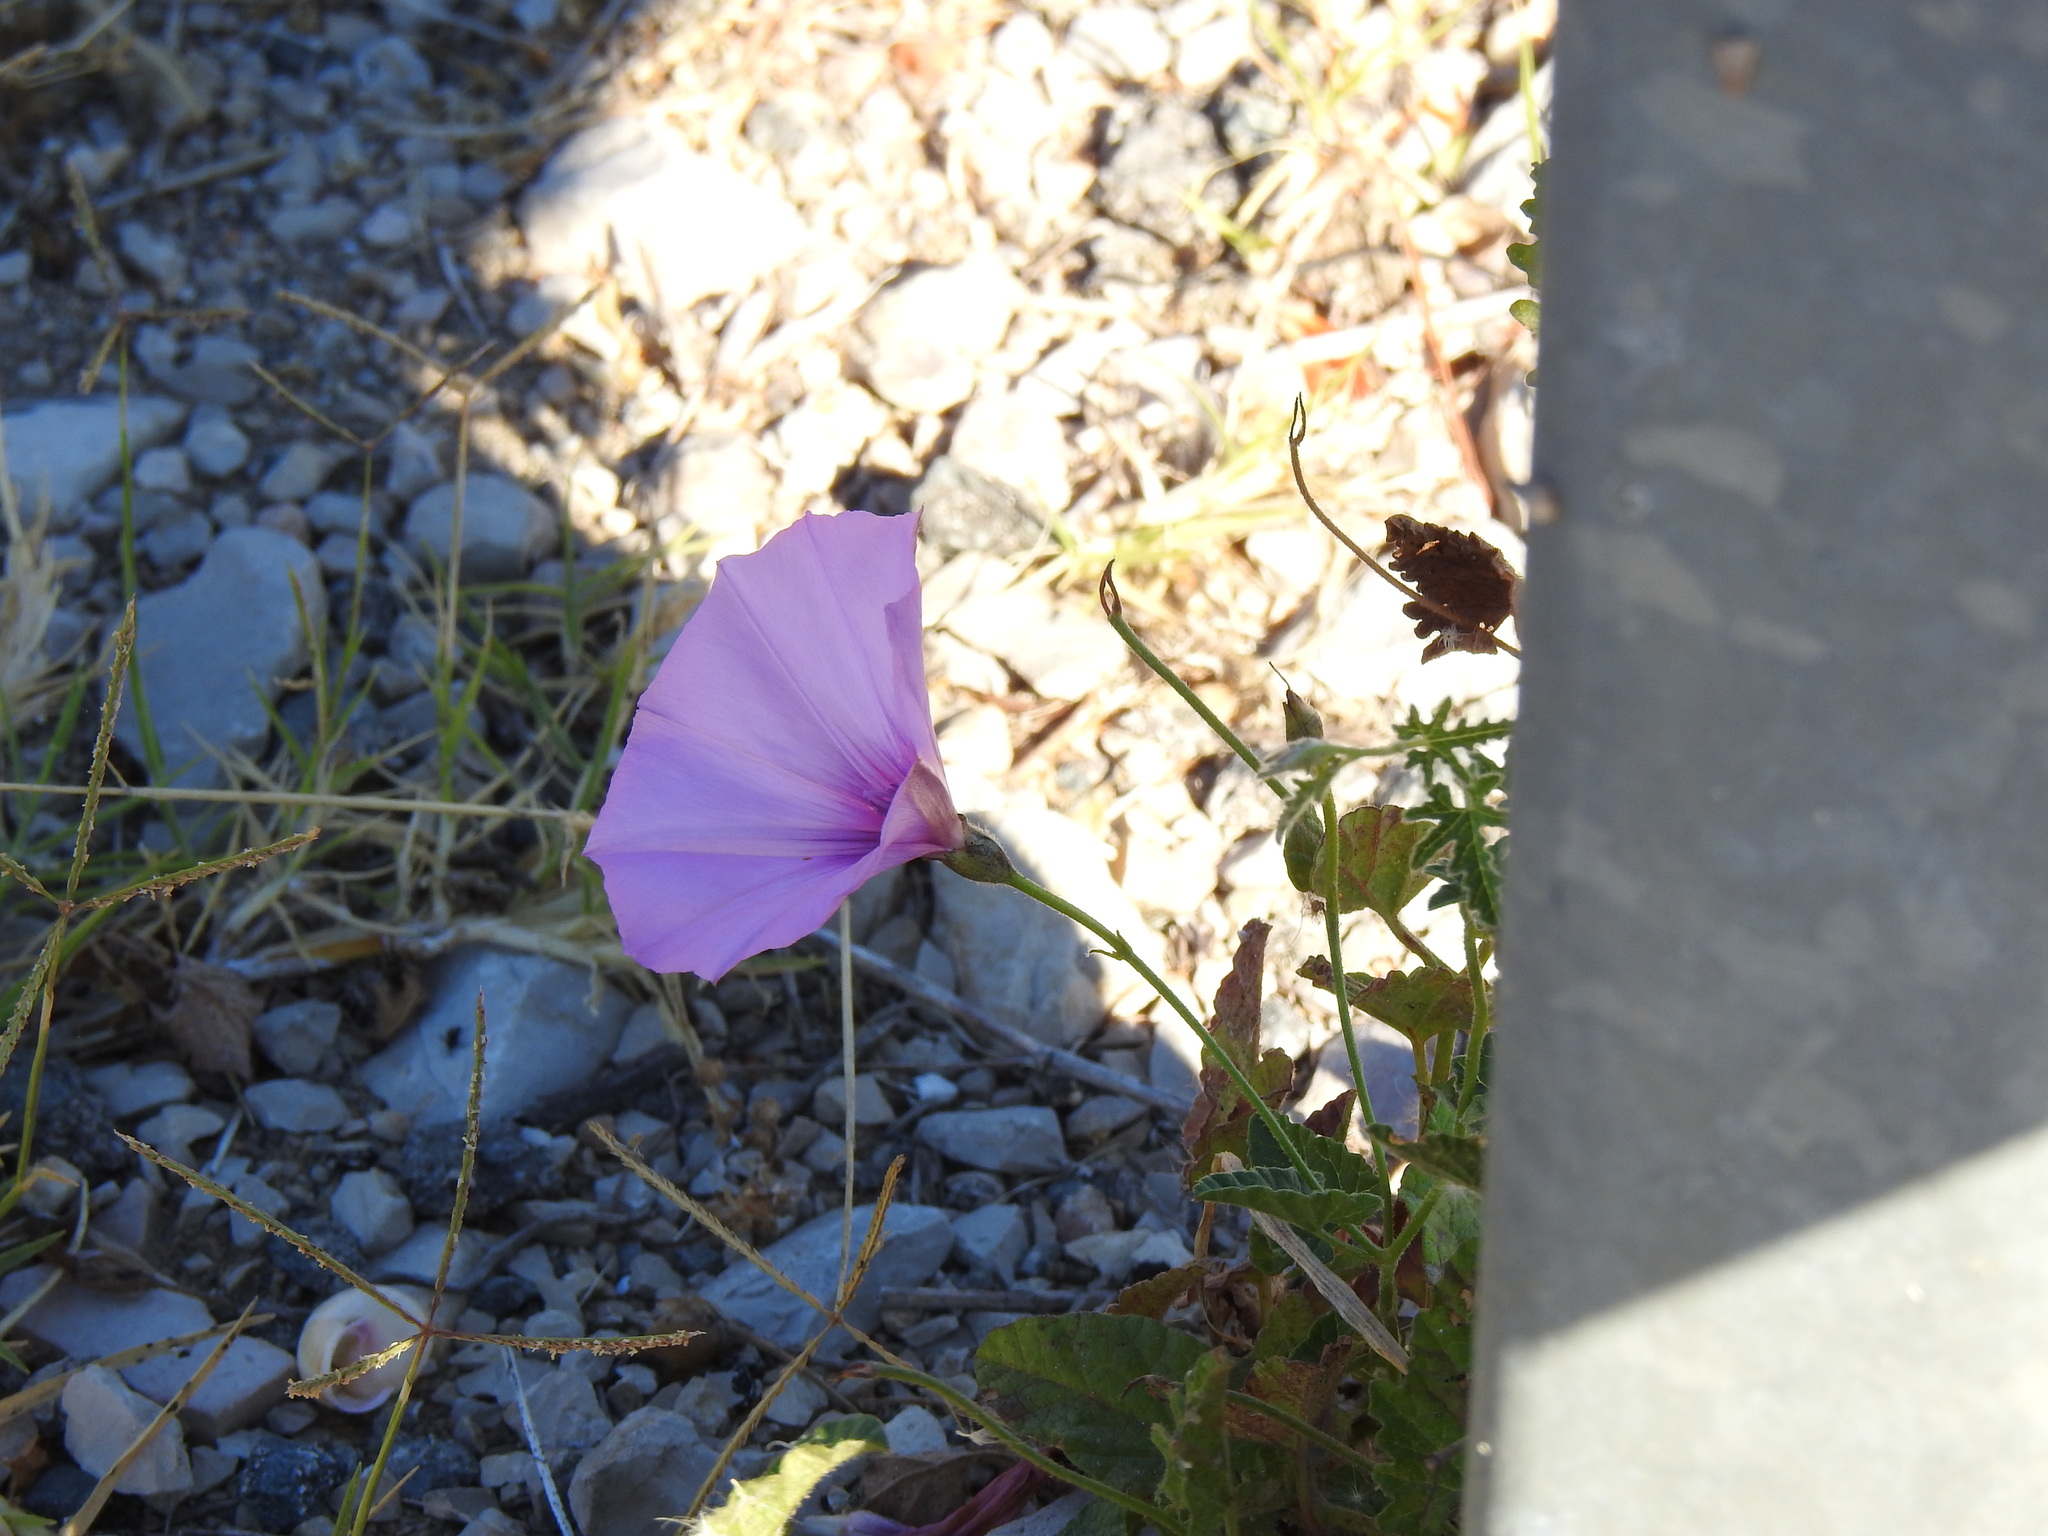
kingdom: Plantae
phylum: Tracheophyta
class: Magnoliopsida
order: Solanales
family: Convolvulaceae
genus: Convolvulus
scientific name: Convolvulus althaeoides
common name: Mallow bindweed
